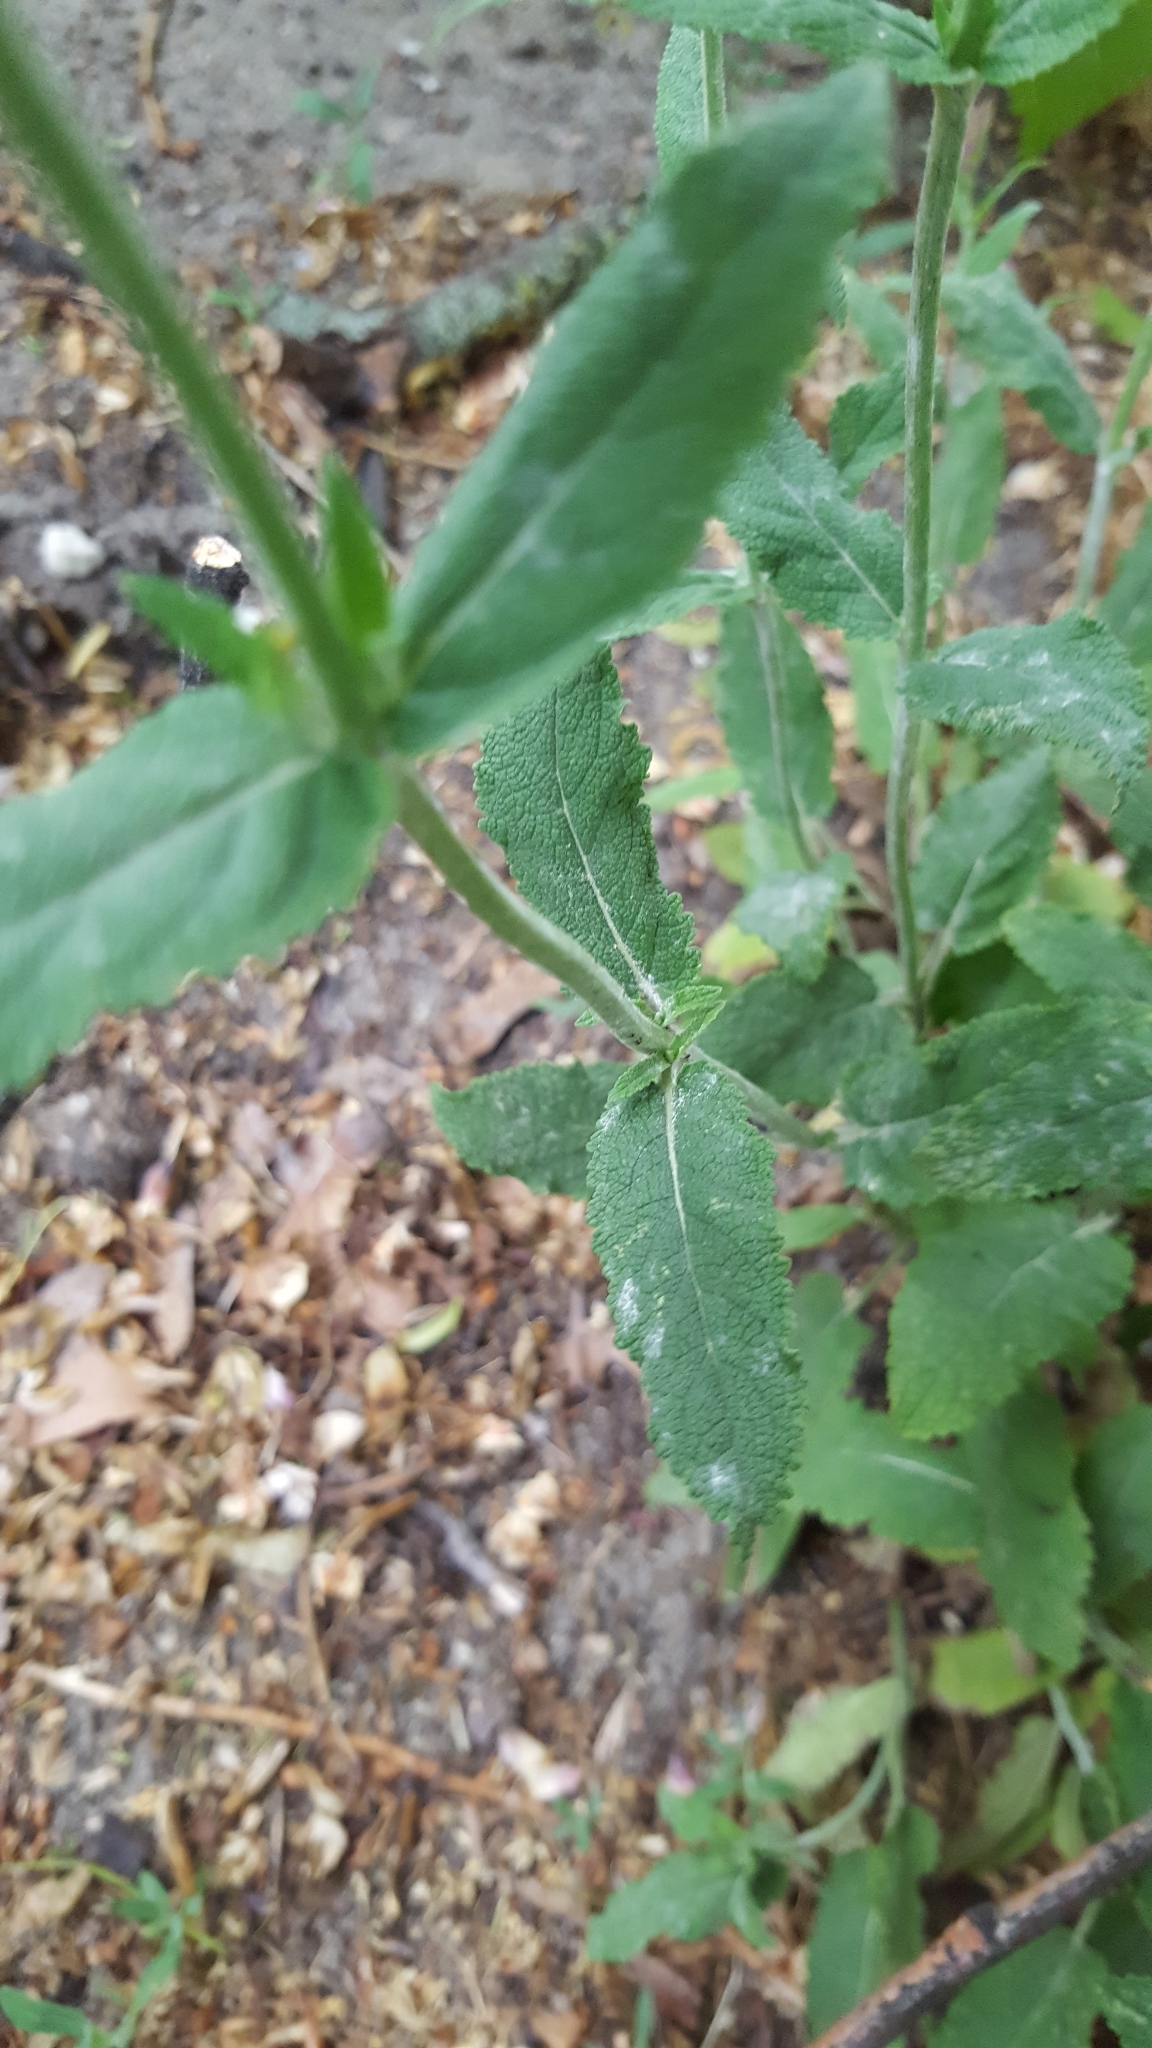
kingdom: Plantae
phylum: Tracheophyta
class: Magnoliopsida
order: Lamiales
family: Lamiaceae
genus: Salvia
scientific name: Salvia nemorosa
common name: Balkan clary
